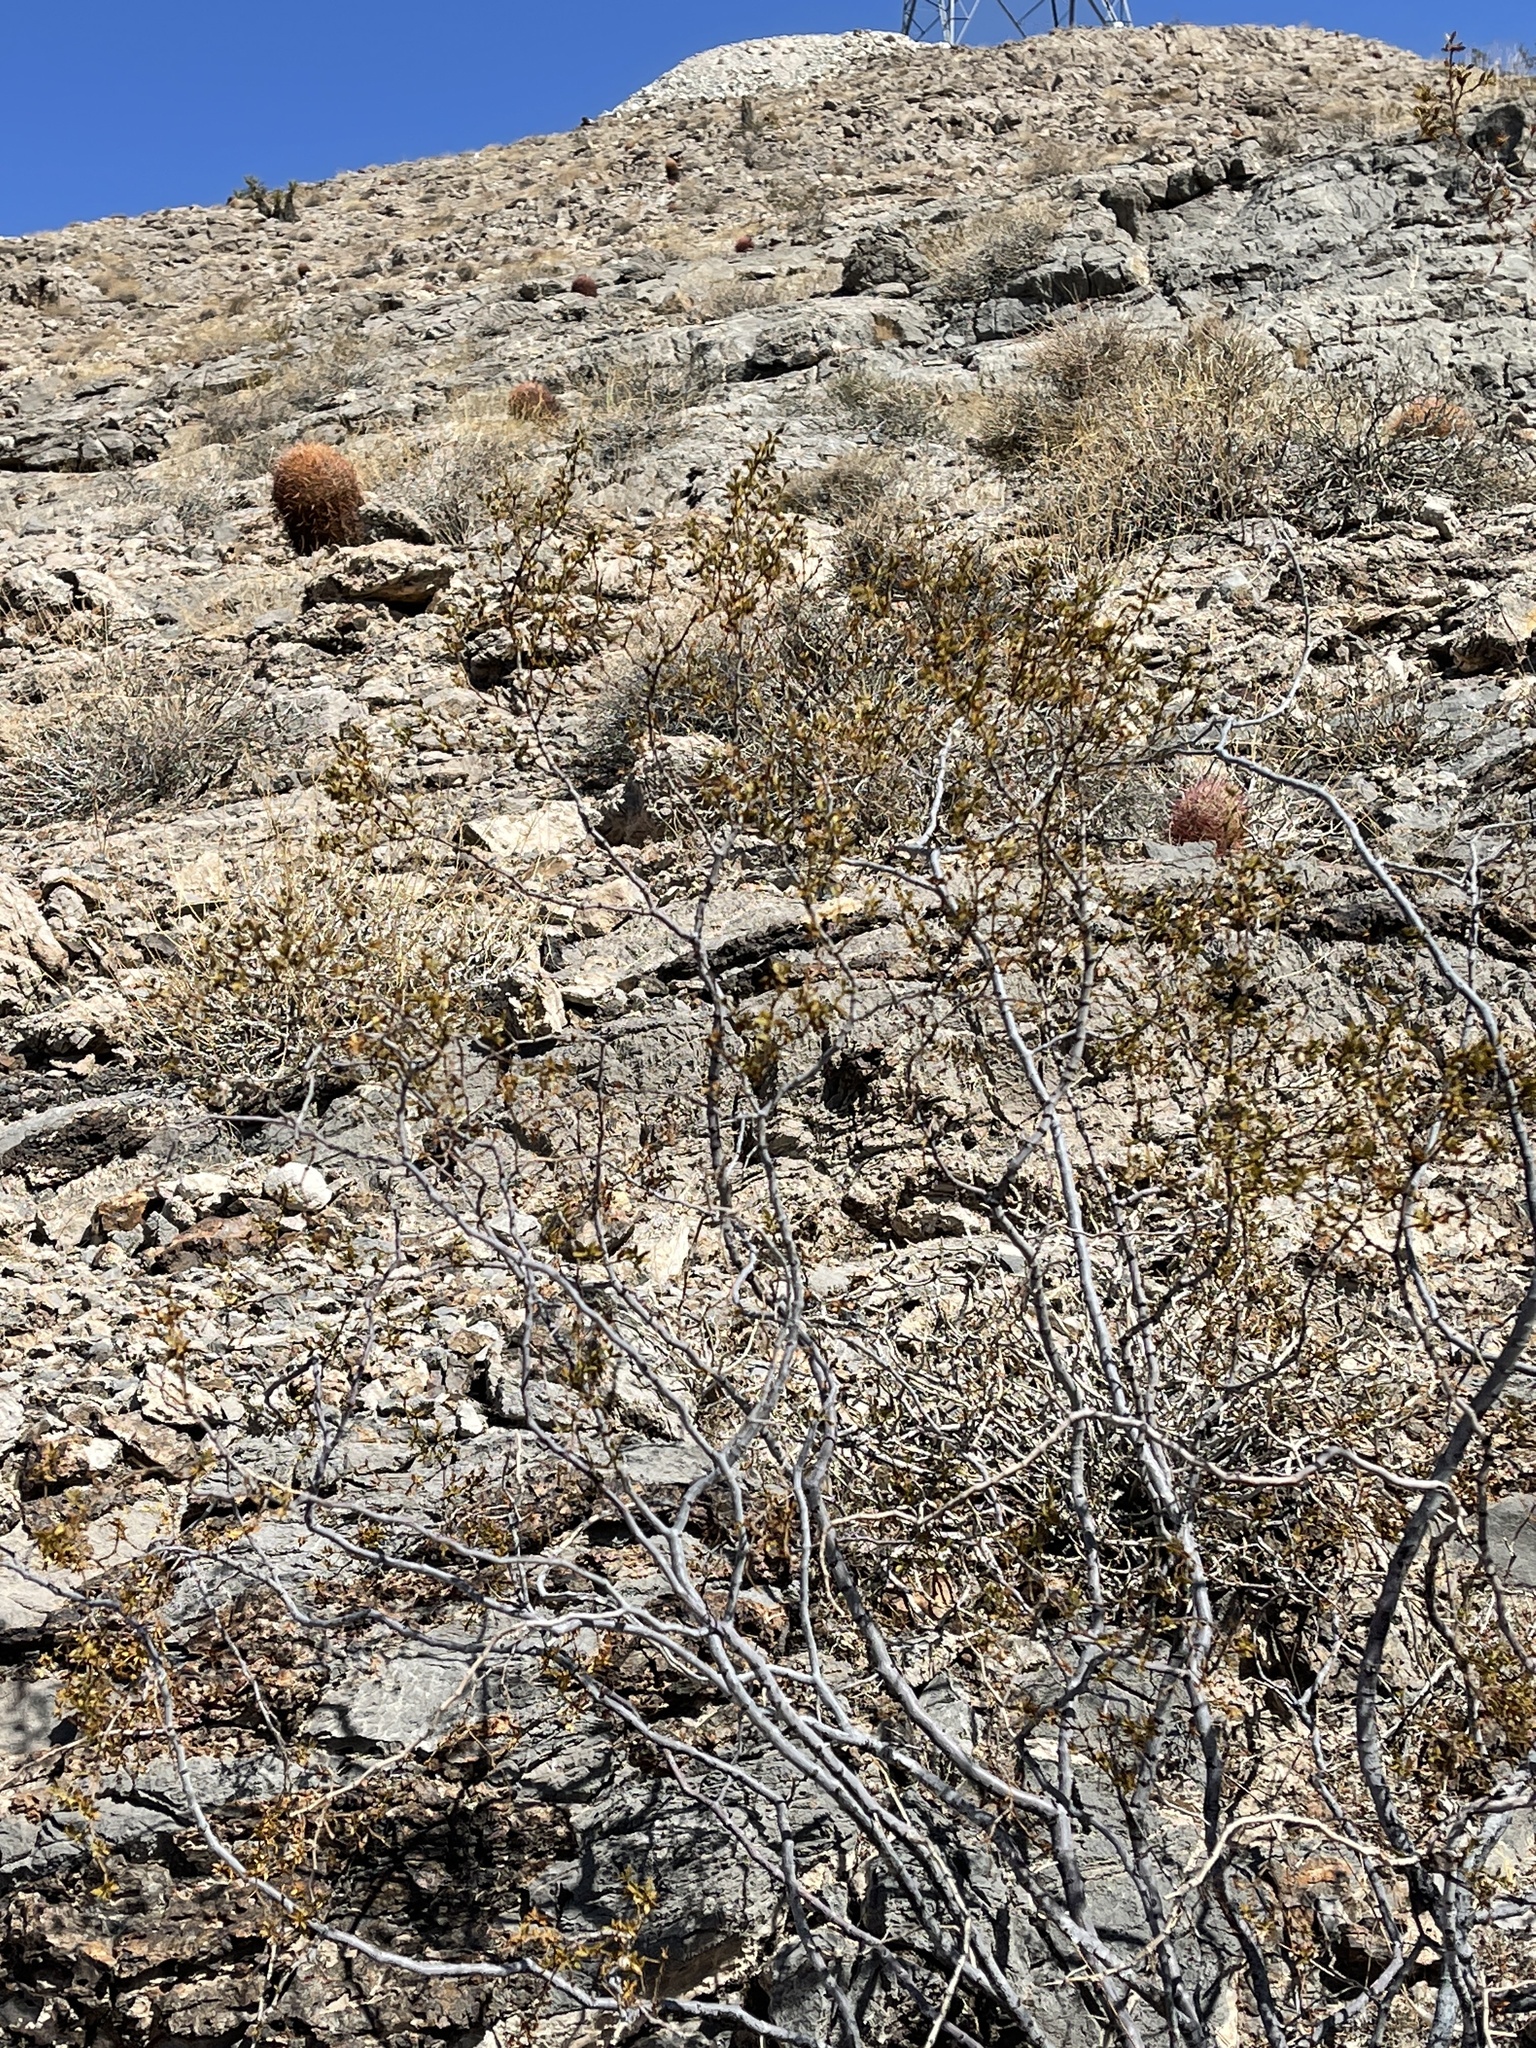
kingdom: Plantae
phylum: Tracheophyta
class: Magnoliopsida
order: Zygophyllales
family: Zygophyllaceae
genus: Larrea
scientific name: Larrea tridentata
